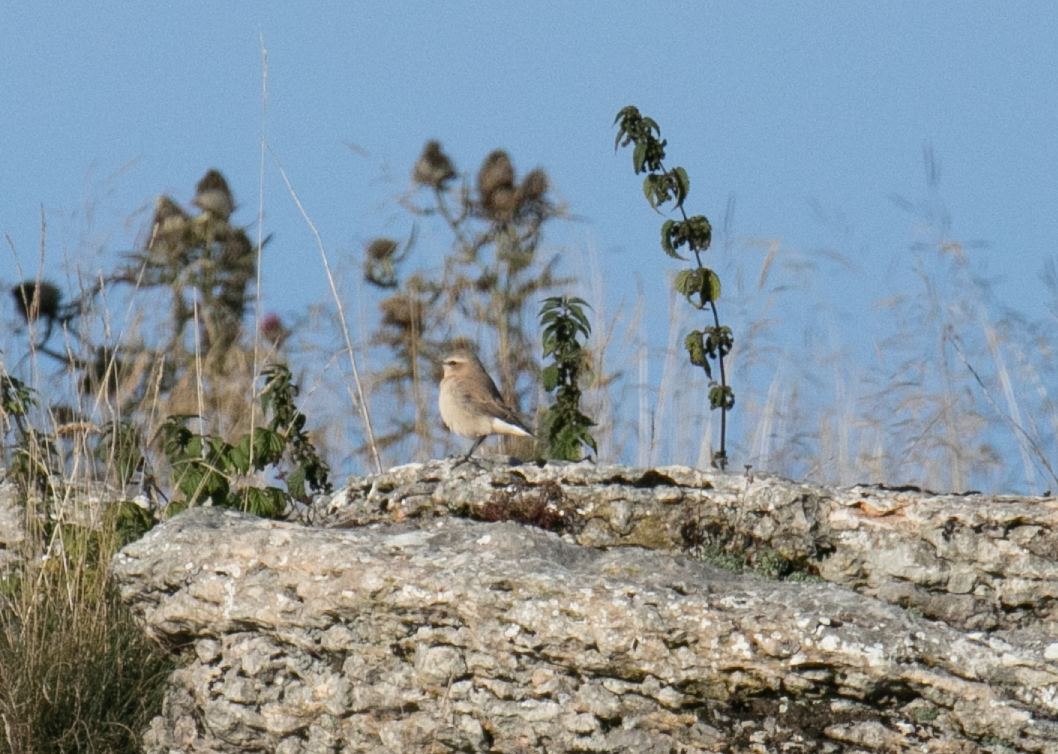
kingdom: Animalia
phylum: Chordata
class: Aves
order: Passeriformes
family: Muscicapidae
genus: Oenanthe
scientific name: Oenanthe oenanthe
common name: Northern wheatear
